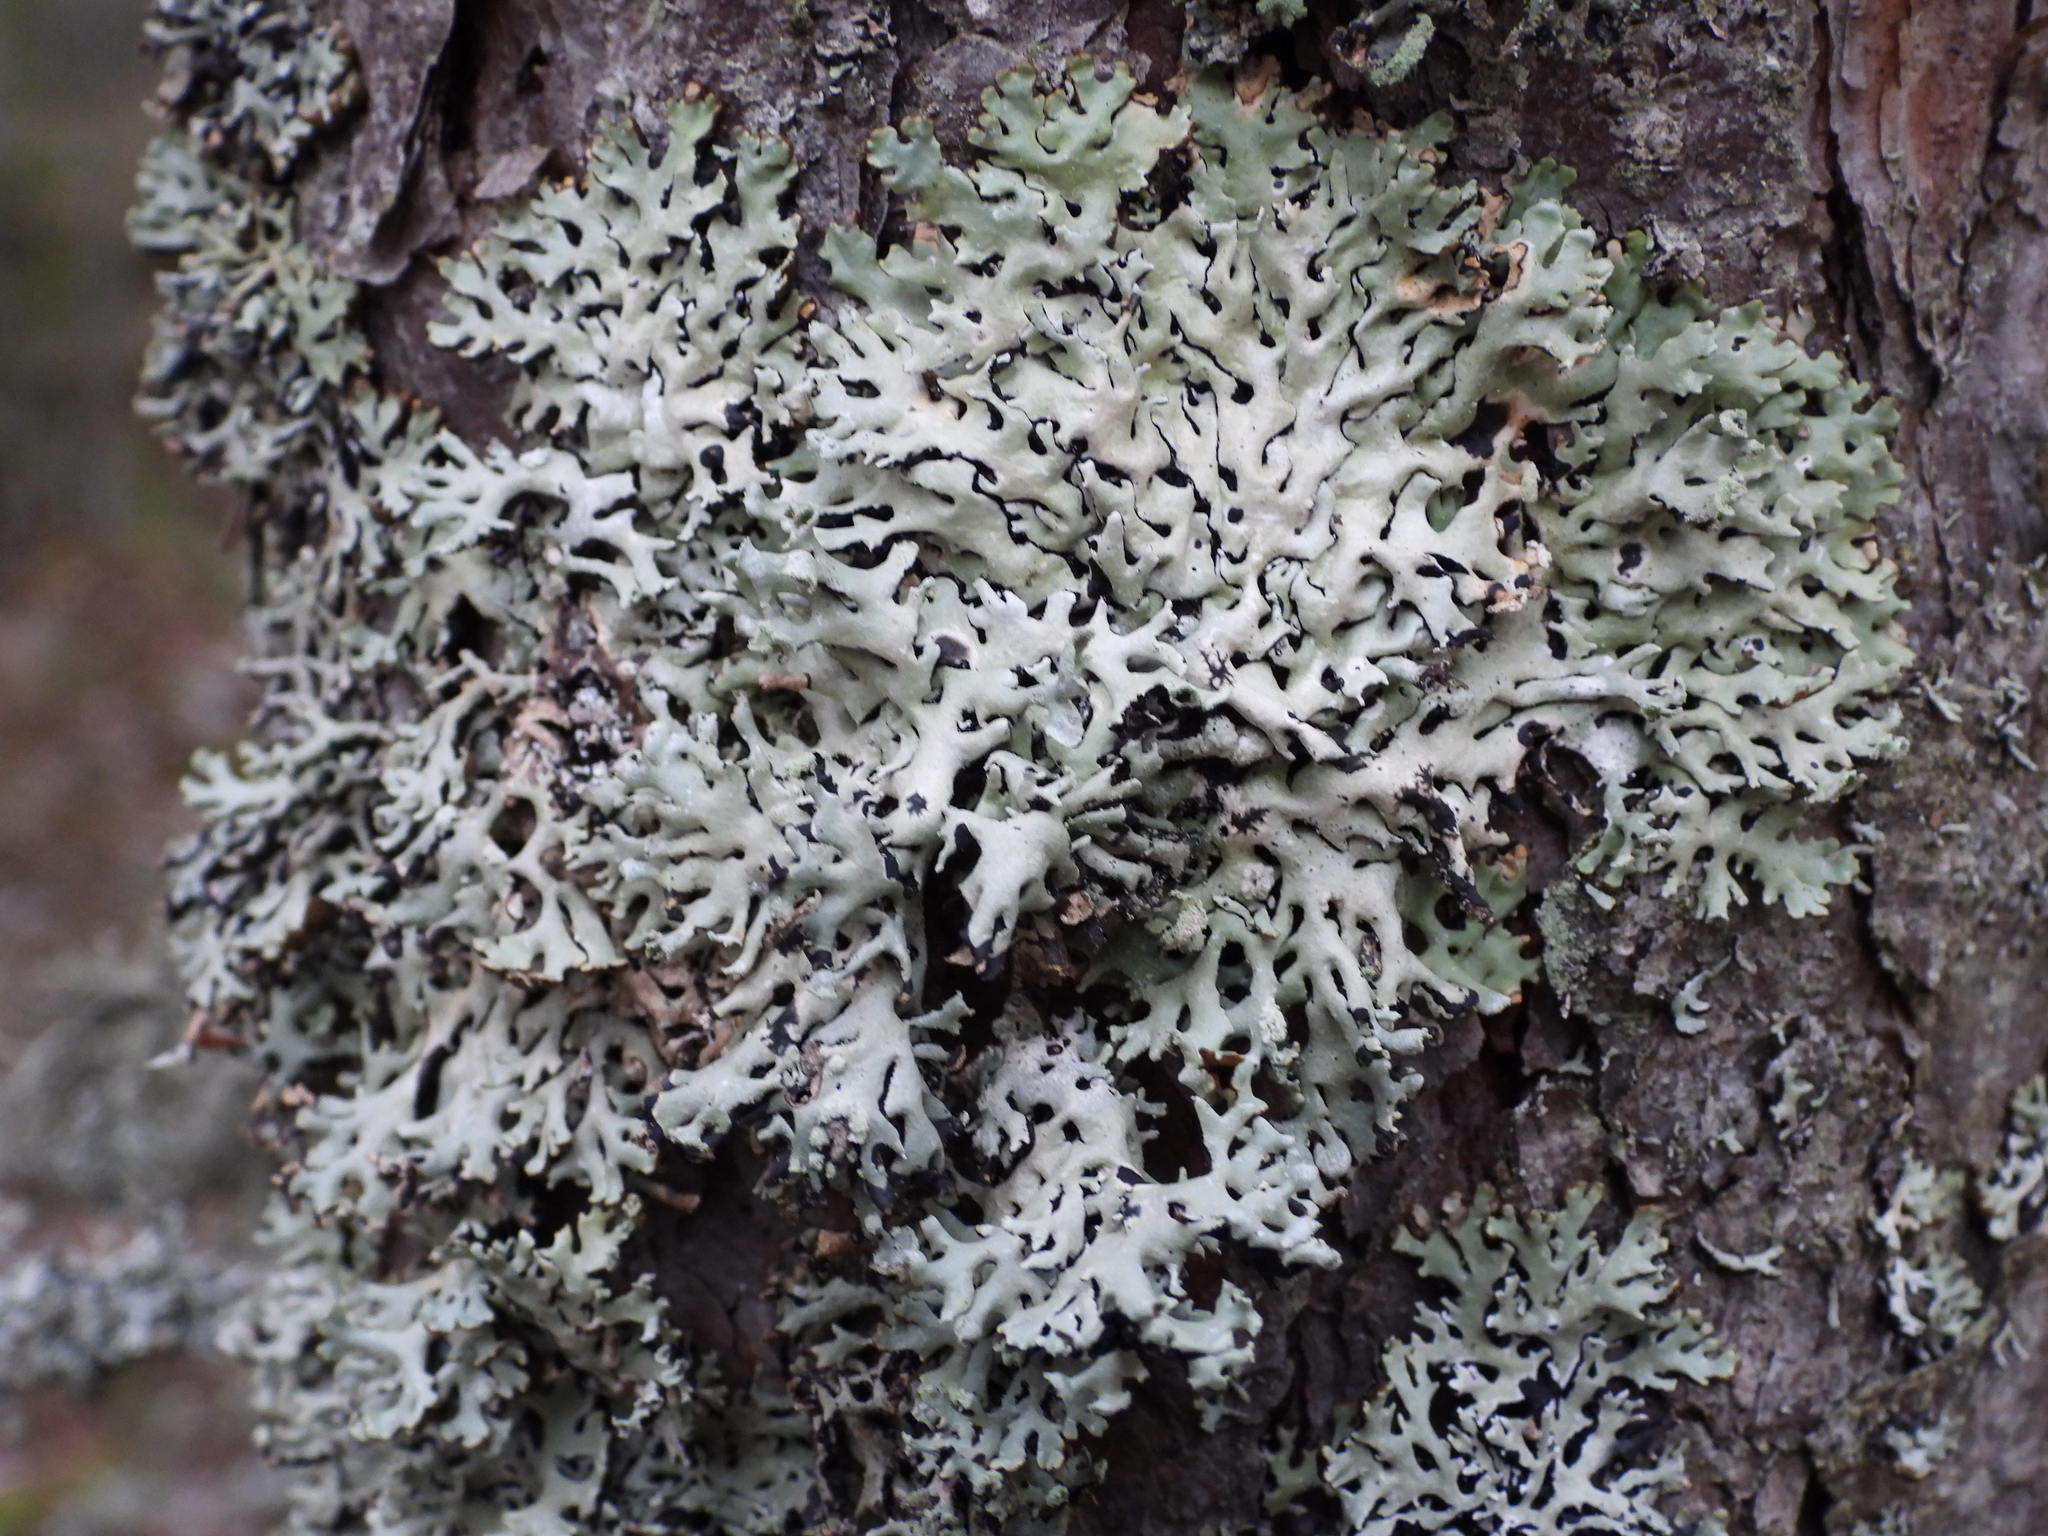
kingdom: Fungi
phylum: Ascomycota
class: Lecanoromycetes
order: Lecanorales
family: Parmeliaceae
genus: Hypogymnia
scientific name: Hypogymnia physodes
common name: Dark crottle
